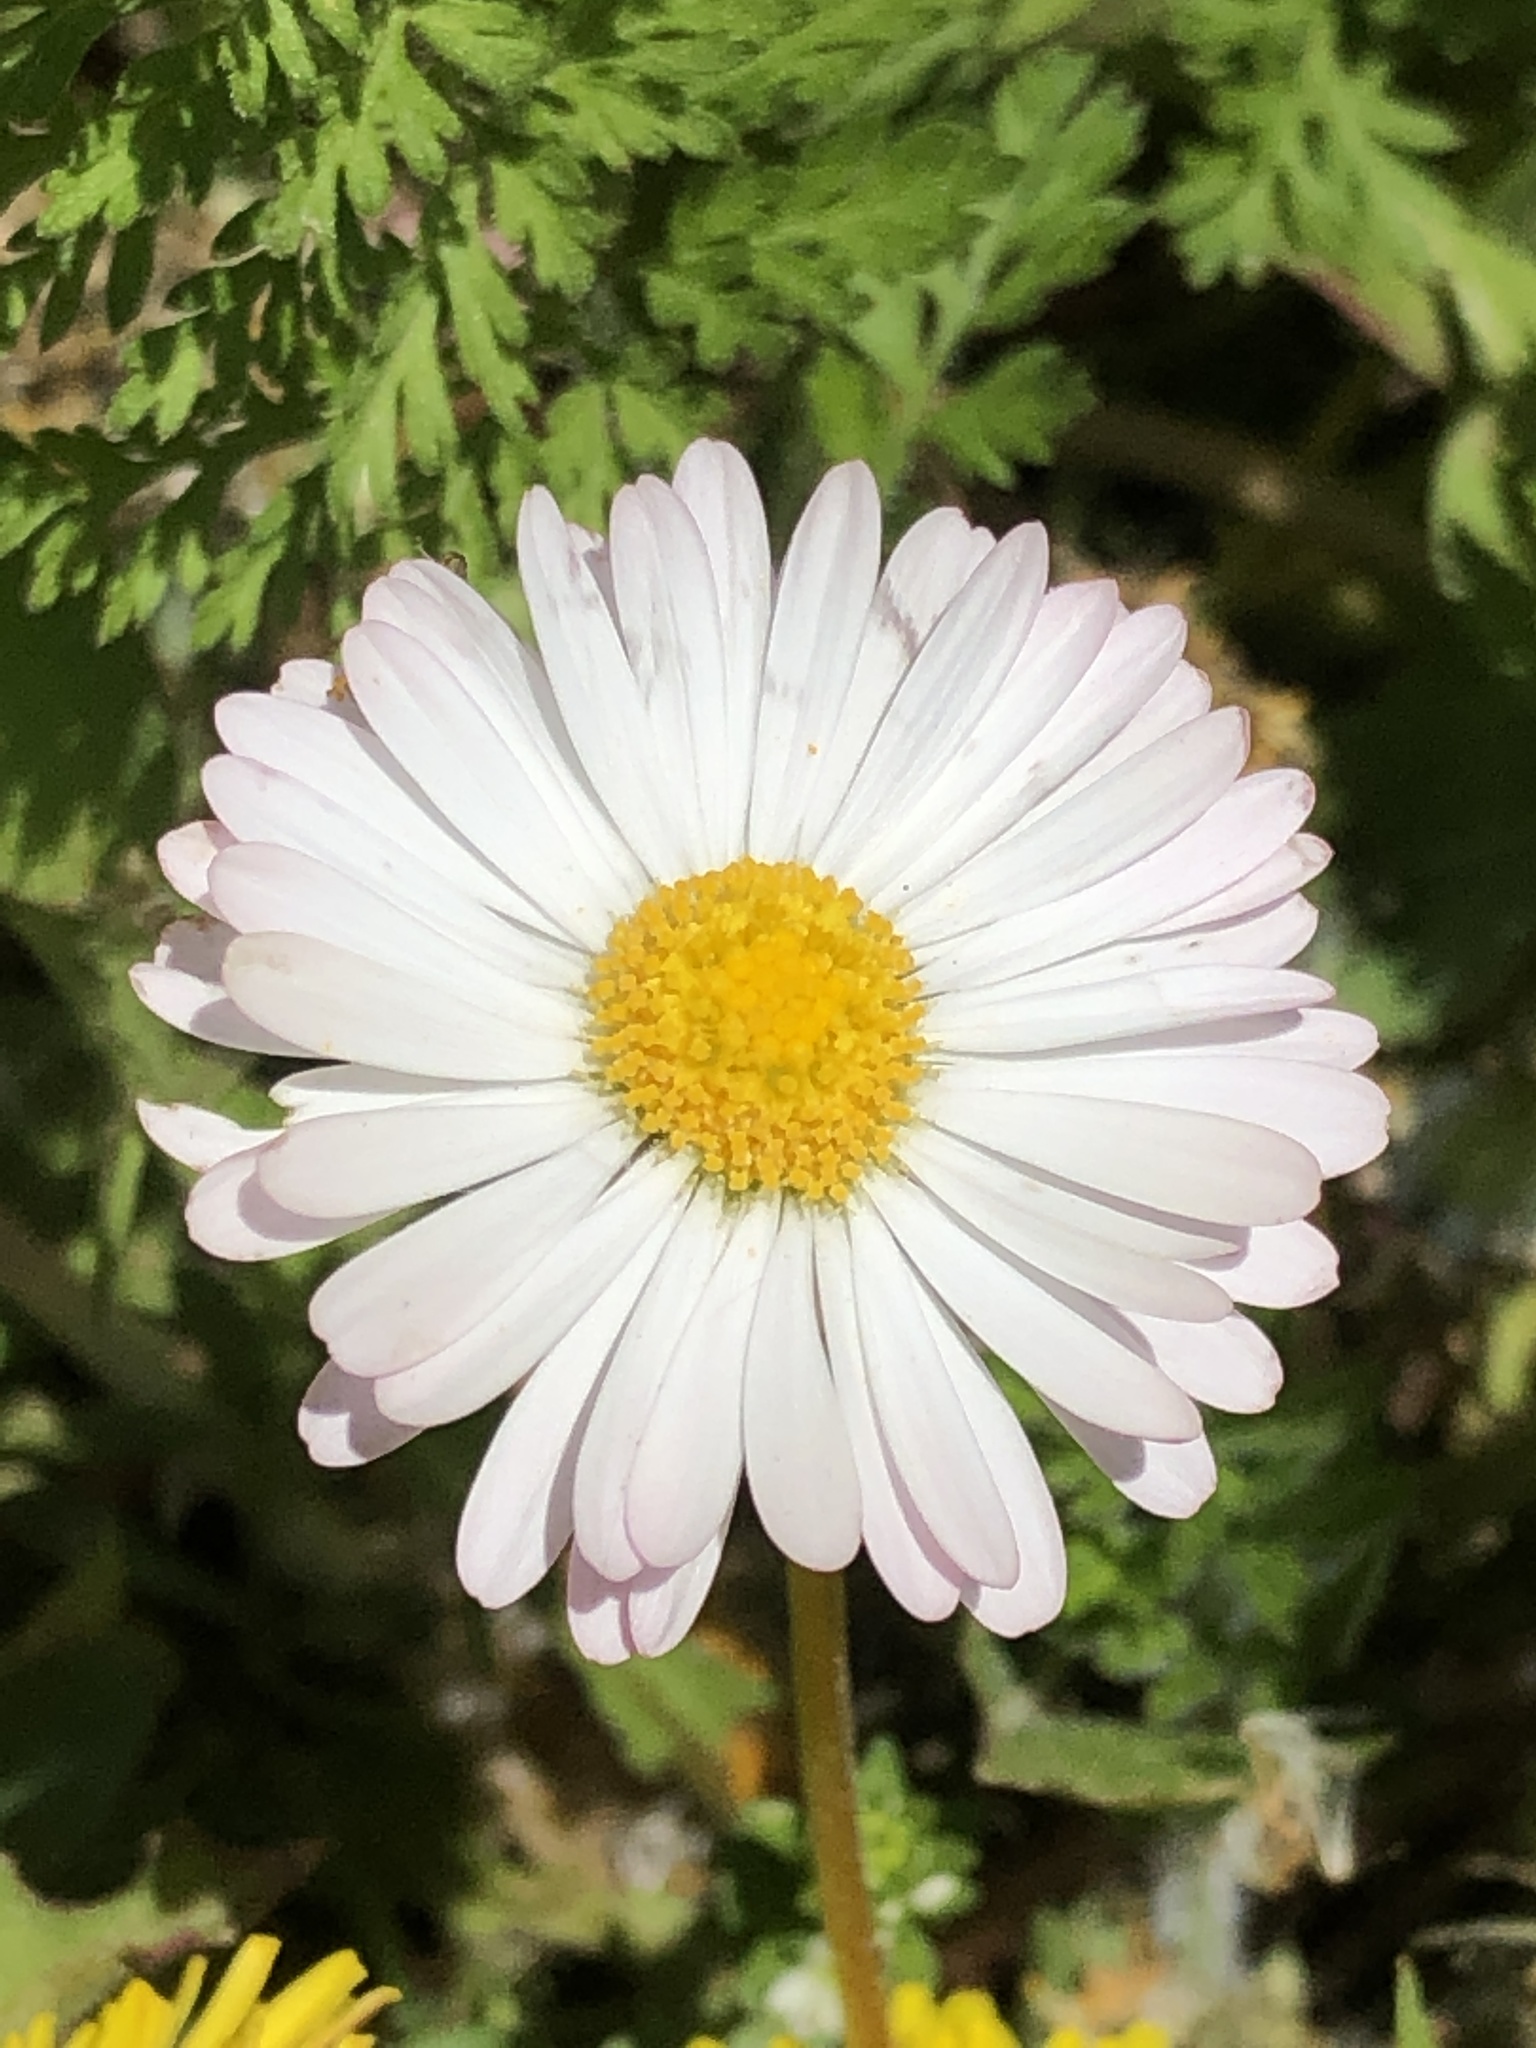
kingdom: Plantae
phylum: Tracheophyta
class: Magnoliopsida
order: Asterales
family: Asteraceae
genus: Bellis
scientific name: Bellis perennis
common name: Lawndaisy
